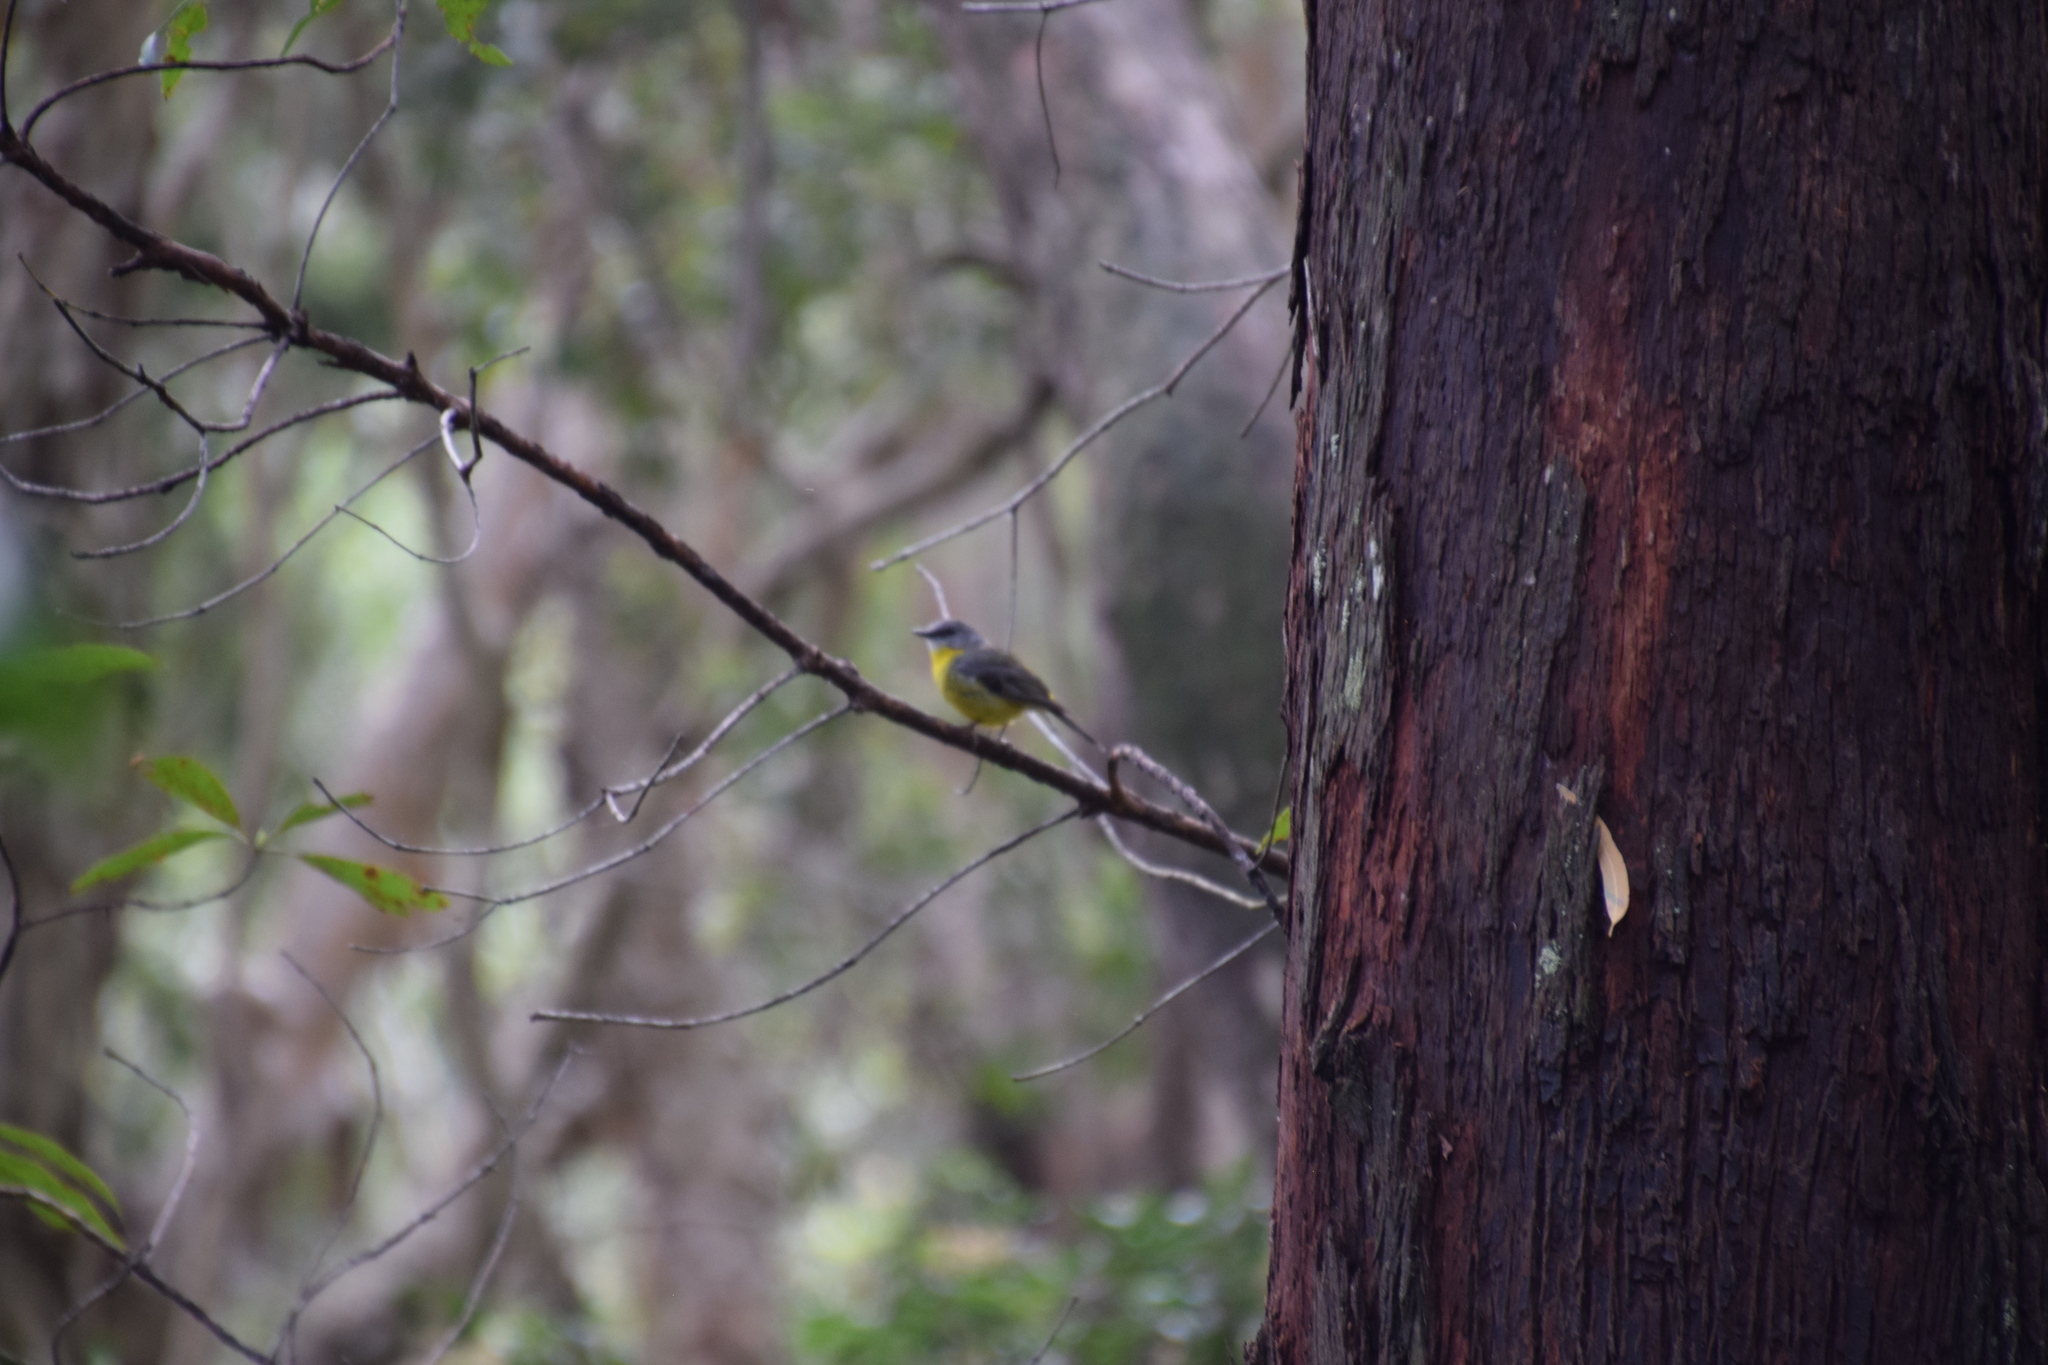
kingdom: Animalia
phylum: Chordata
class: Aves
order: Passeriformes
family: Petroicidae
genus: Eopsaltria
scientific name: Eopsaltria australis
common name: Eastern yellow robin
